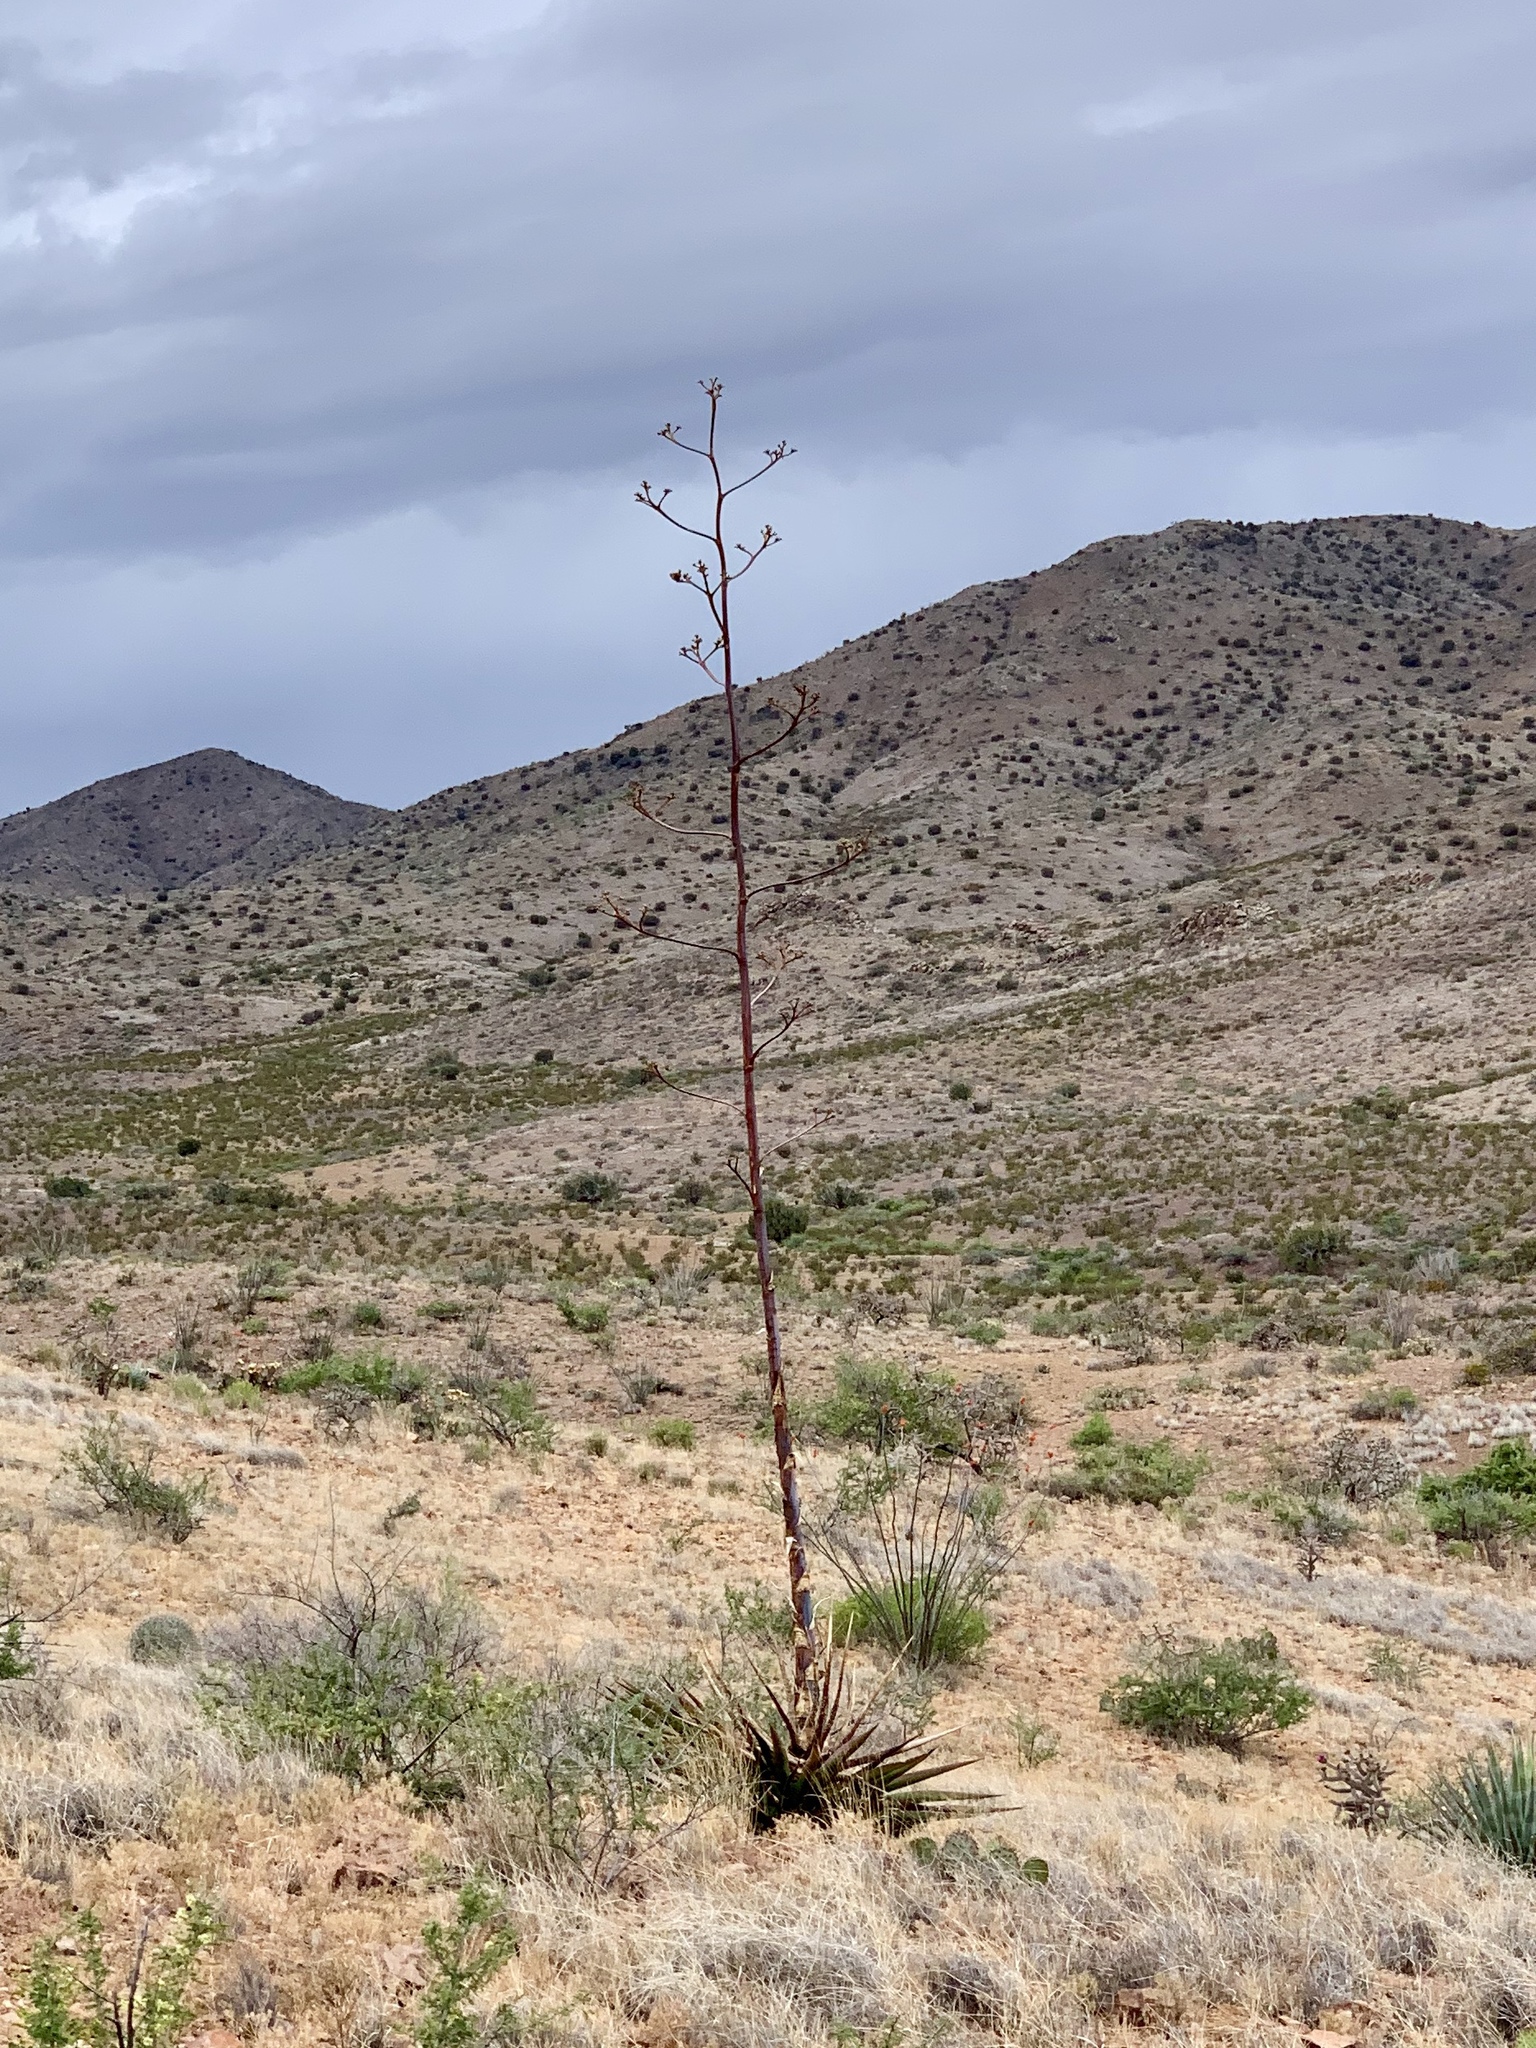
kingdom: Plantae
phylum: Tracheophyta
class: Liliopsida
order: Asparagales
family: Asparagaceae
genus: Agave
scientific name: Agave palmeri
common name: Palmer agave
